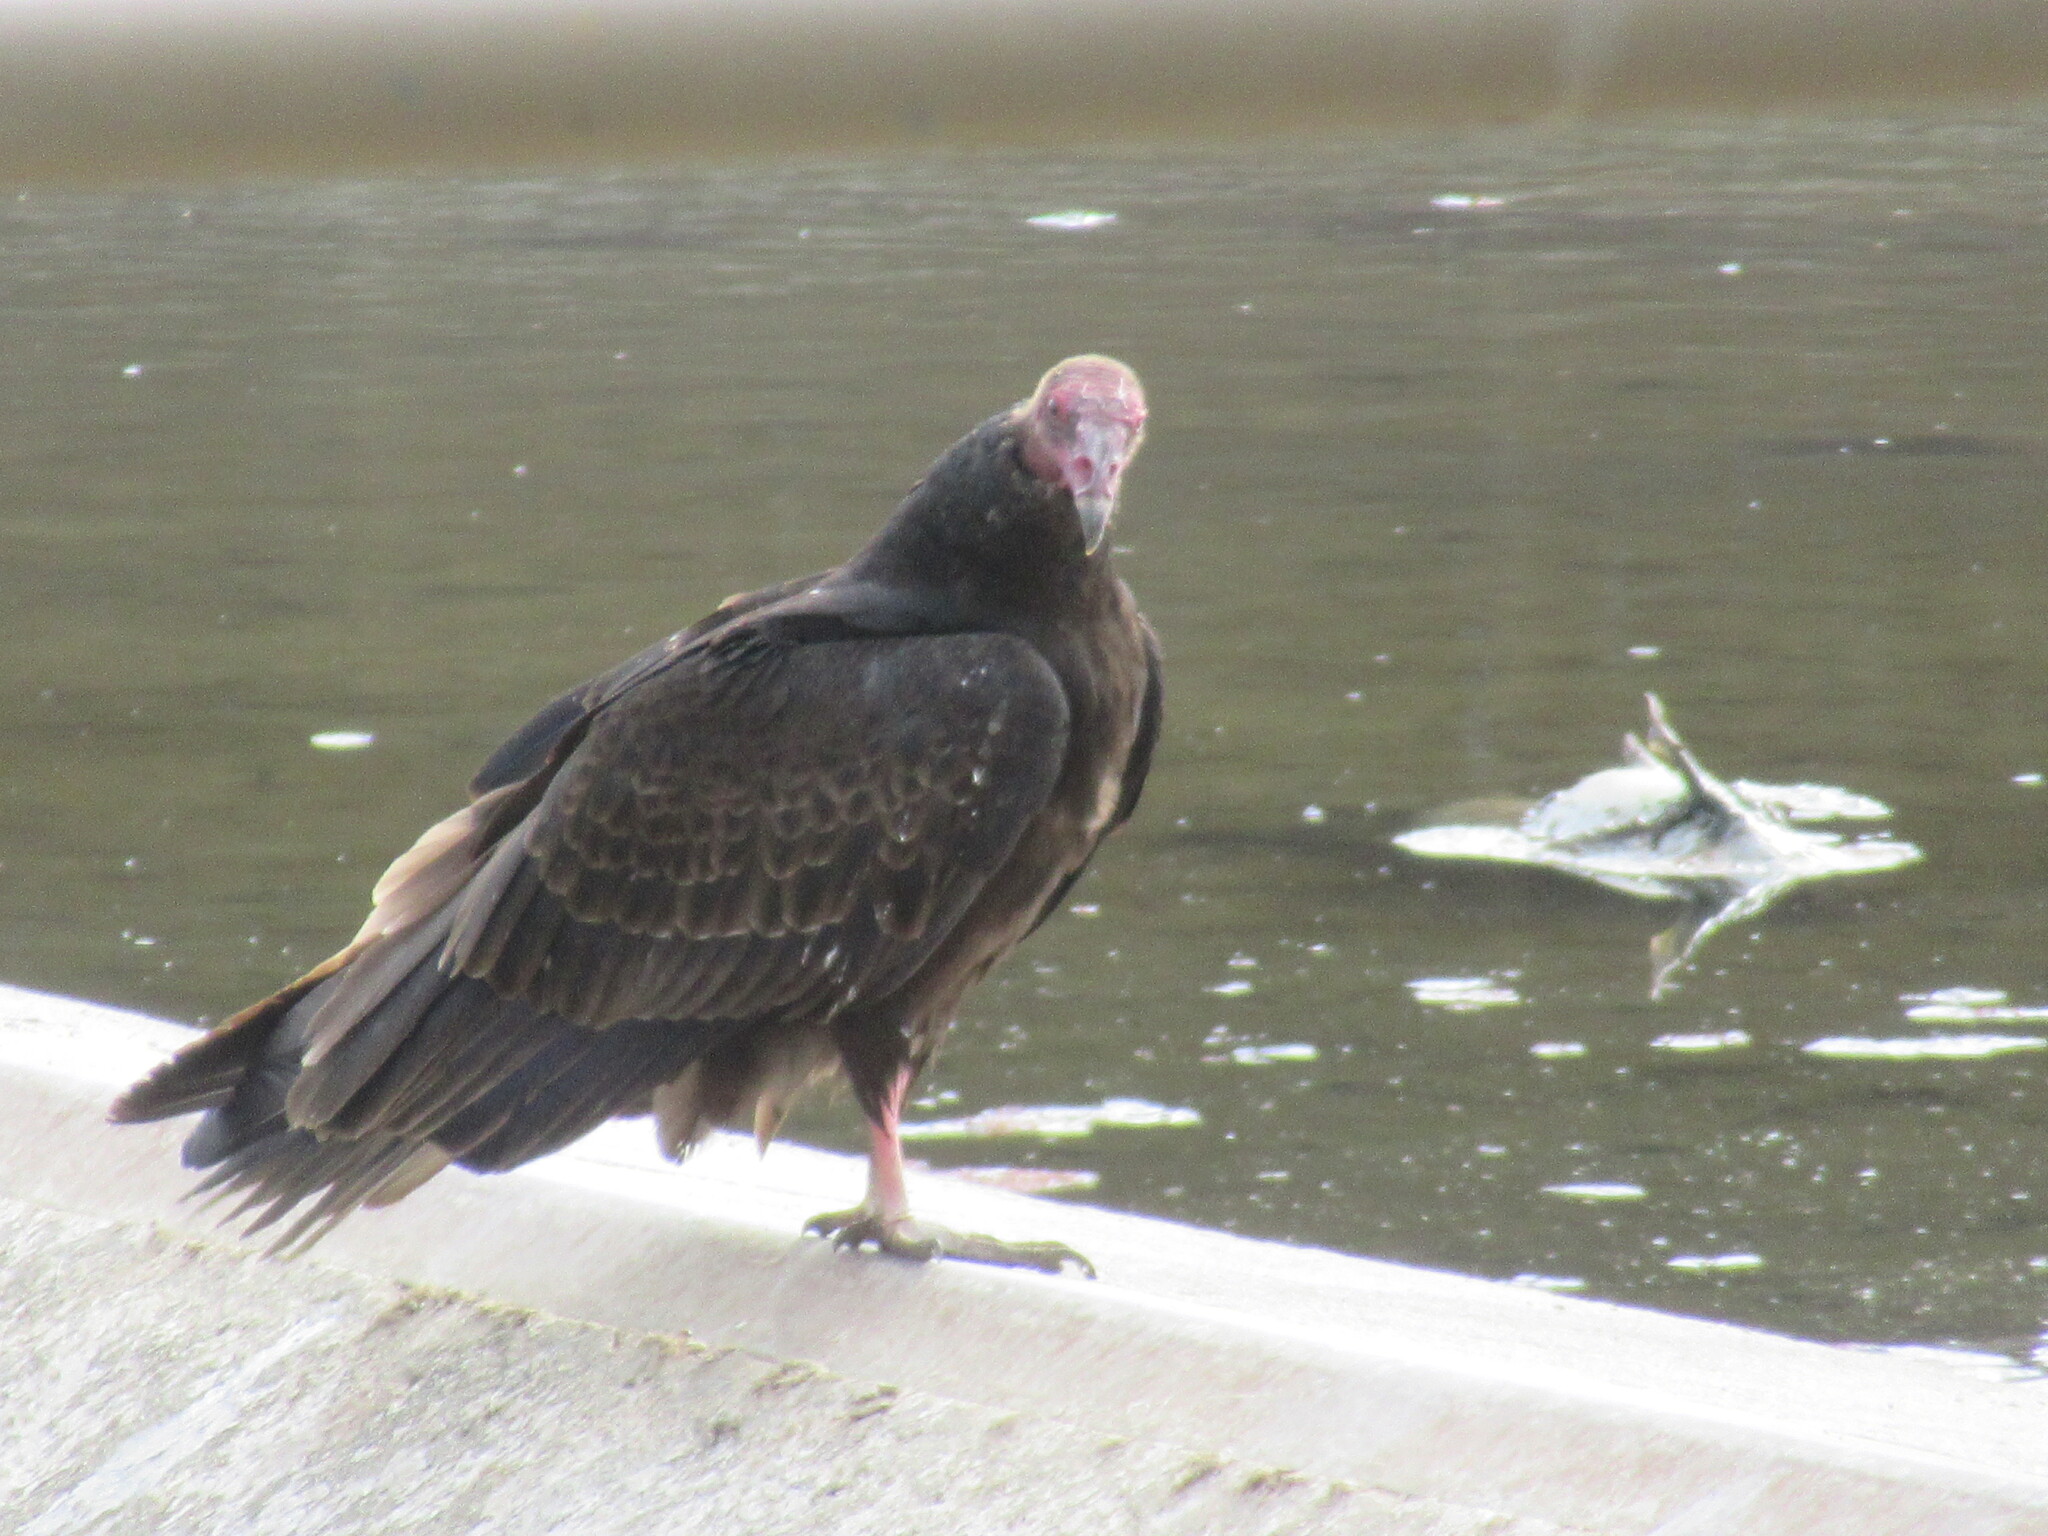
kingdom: Animalia
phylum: Chordata
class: Aves
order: Accipitriformes
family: Cathartidae
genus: Cathartes
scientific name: Cathartes aura
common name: Turkey vulture
